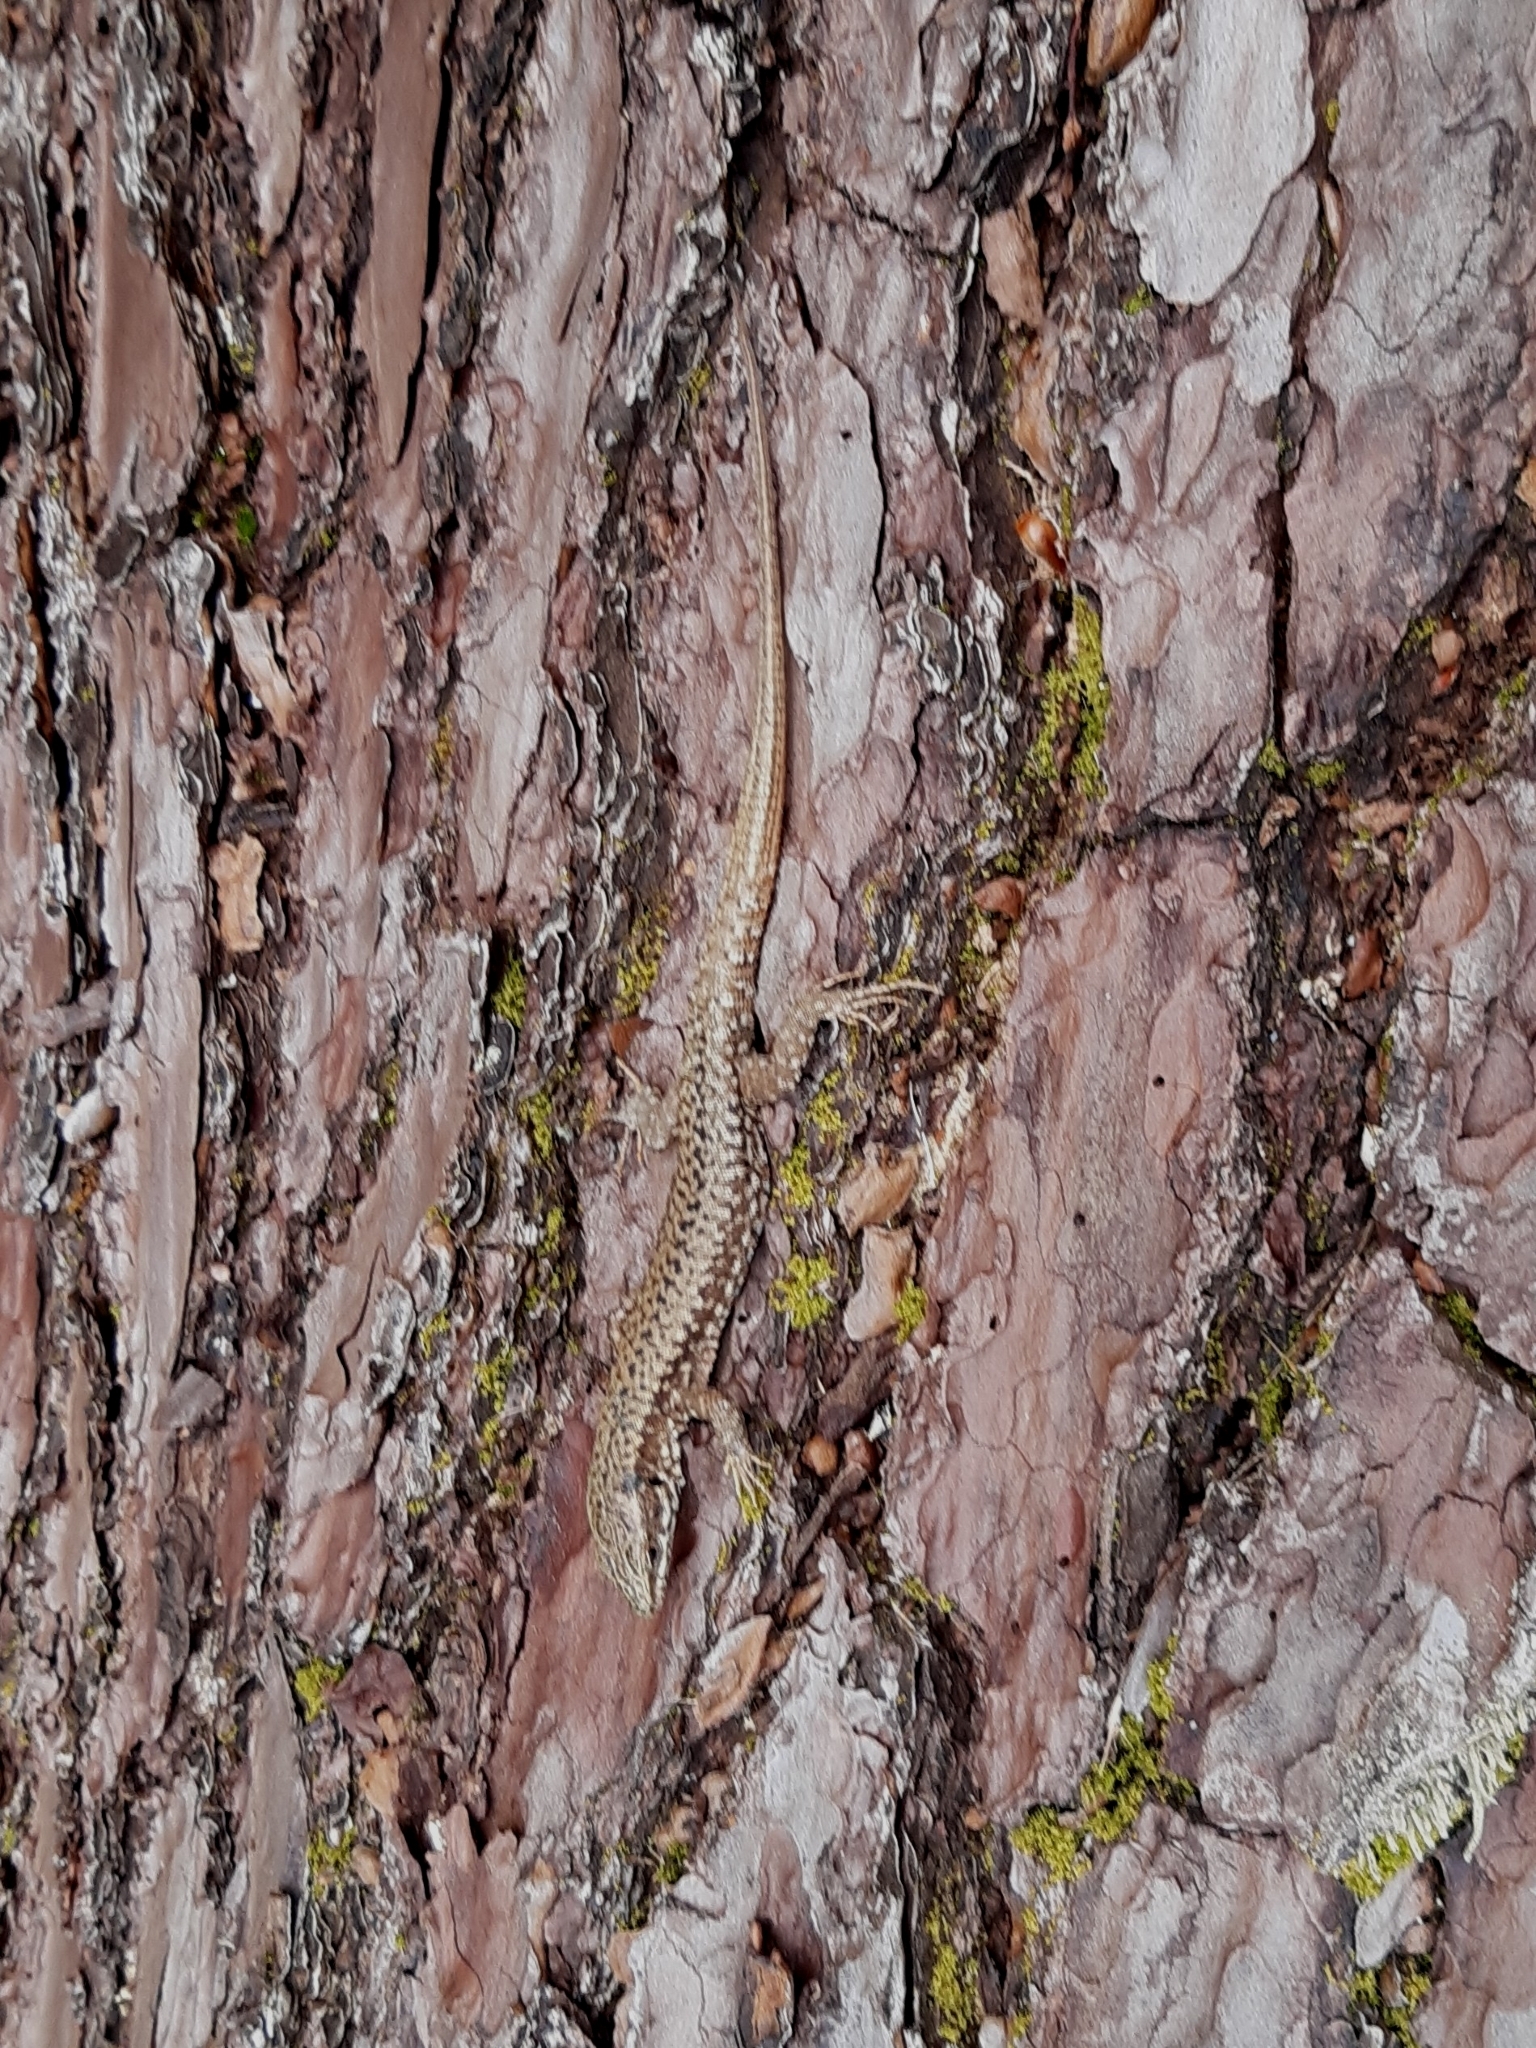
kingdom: Animalia
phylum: Chordata
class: Squamata
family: Lacertidae
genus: Podarcis
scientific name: Podarcis muralis
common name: Common wall lizard
